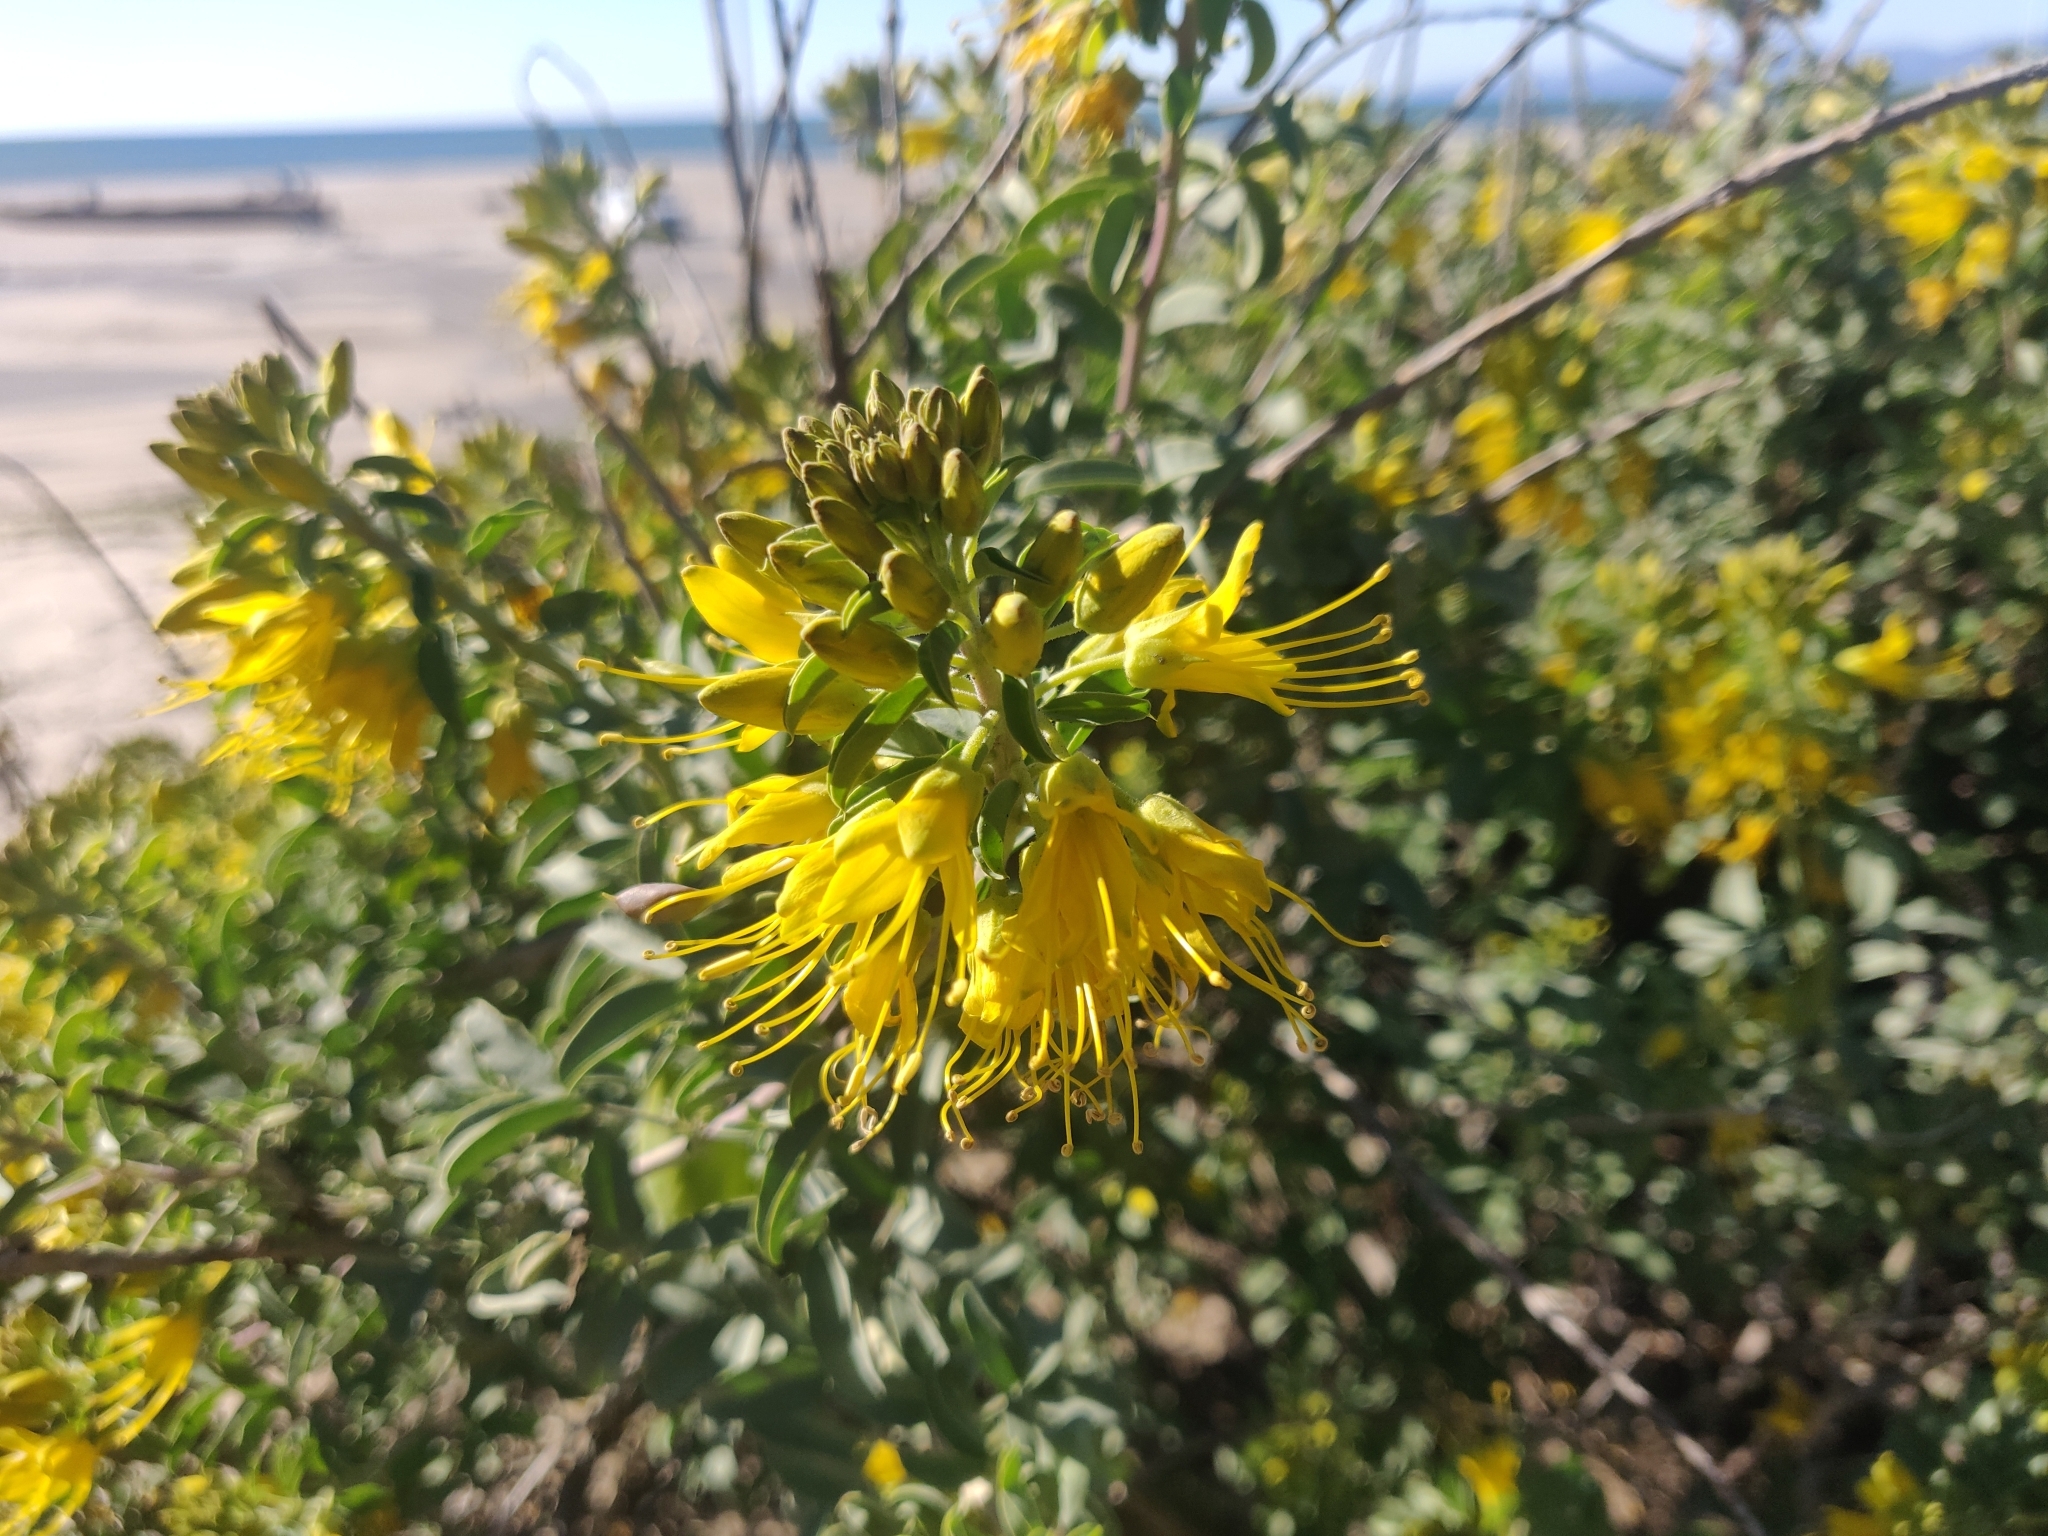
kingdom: Plantae
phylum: Tracheophyta
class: Magnoliopsida
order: Brassicales
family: Cleomaceae
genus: Cleomella
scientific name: Cleomella arborea
